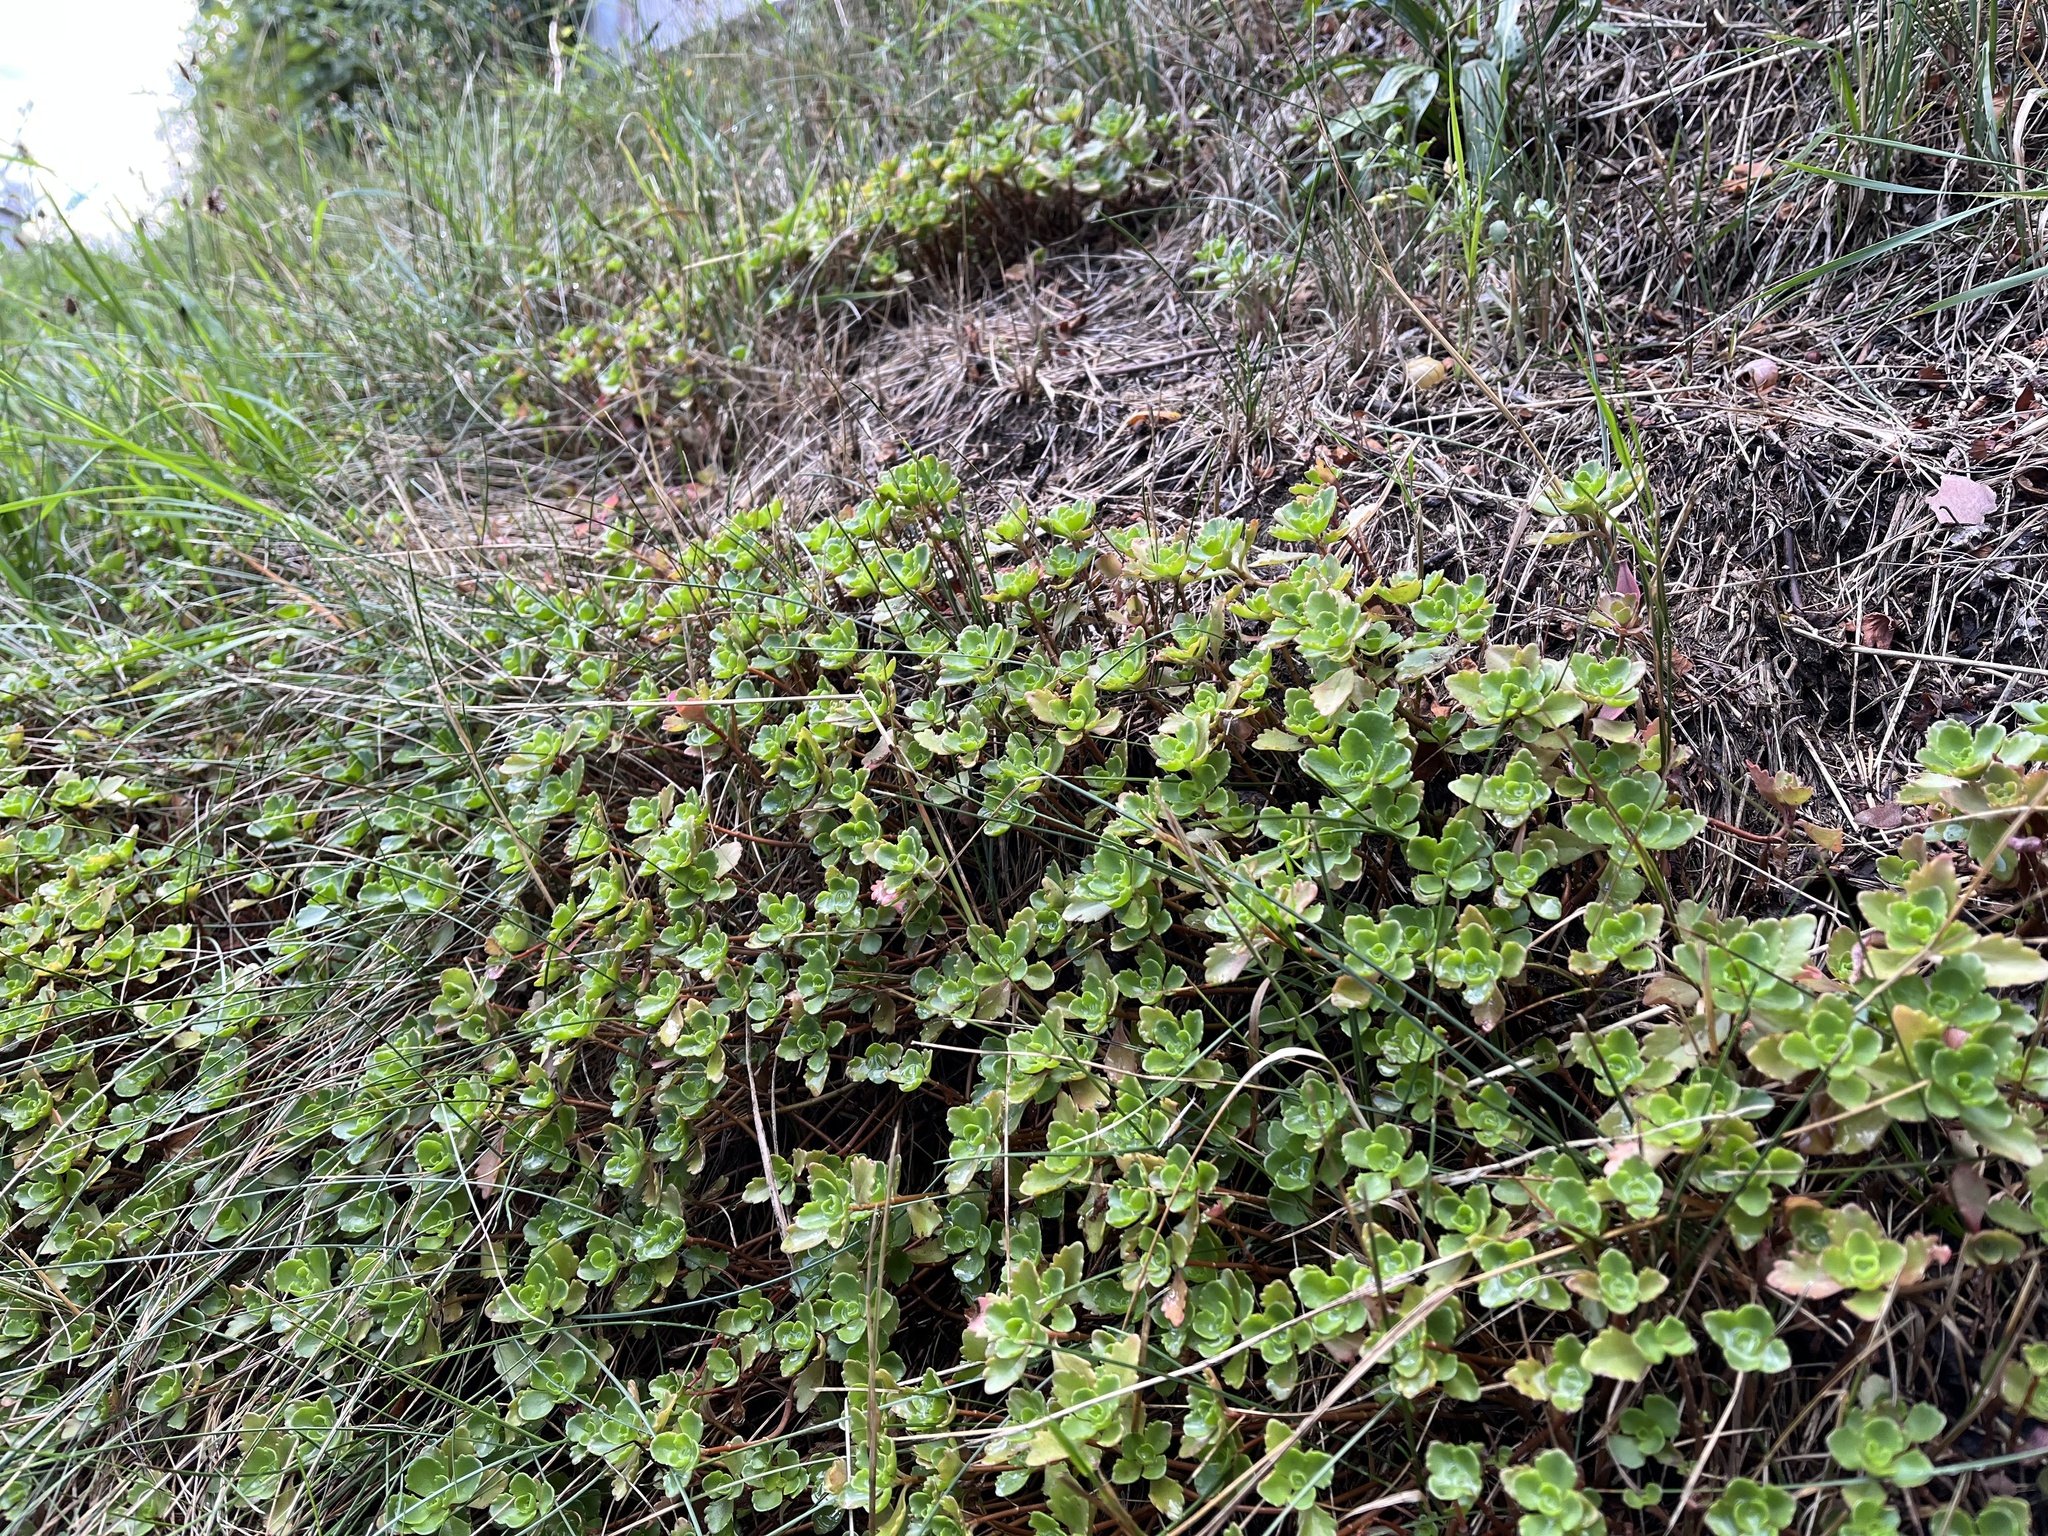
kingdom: Plantae
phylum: Tracheophyta
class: Magnoliopsida
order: Saxifragales
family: Crassulaceae
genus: Phedimus
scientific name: Phedimus spurius
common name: Caucasian stonecrop
